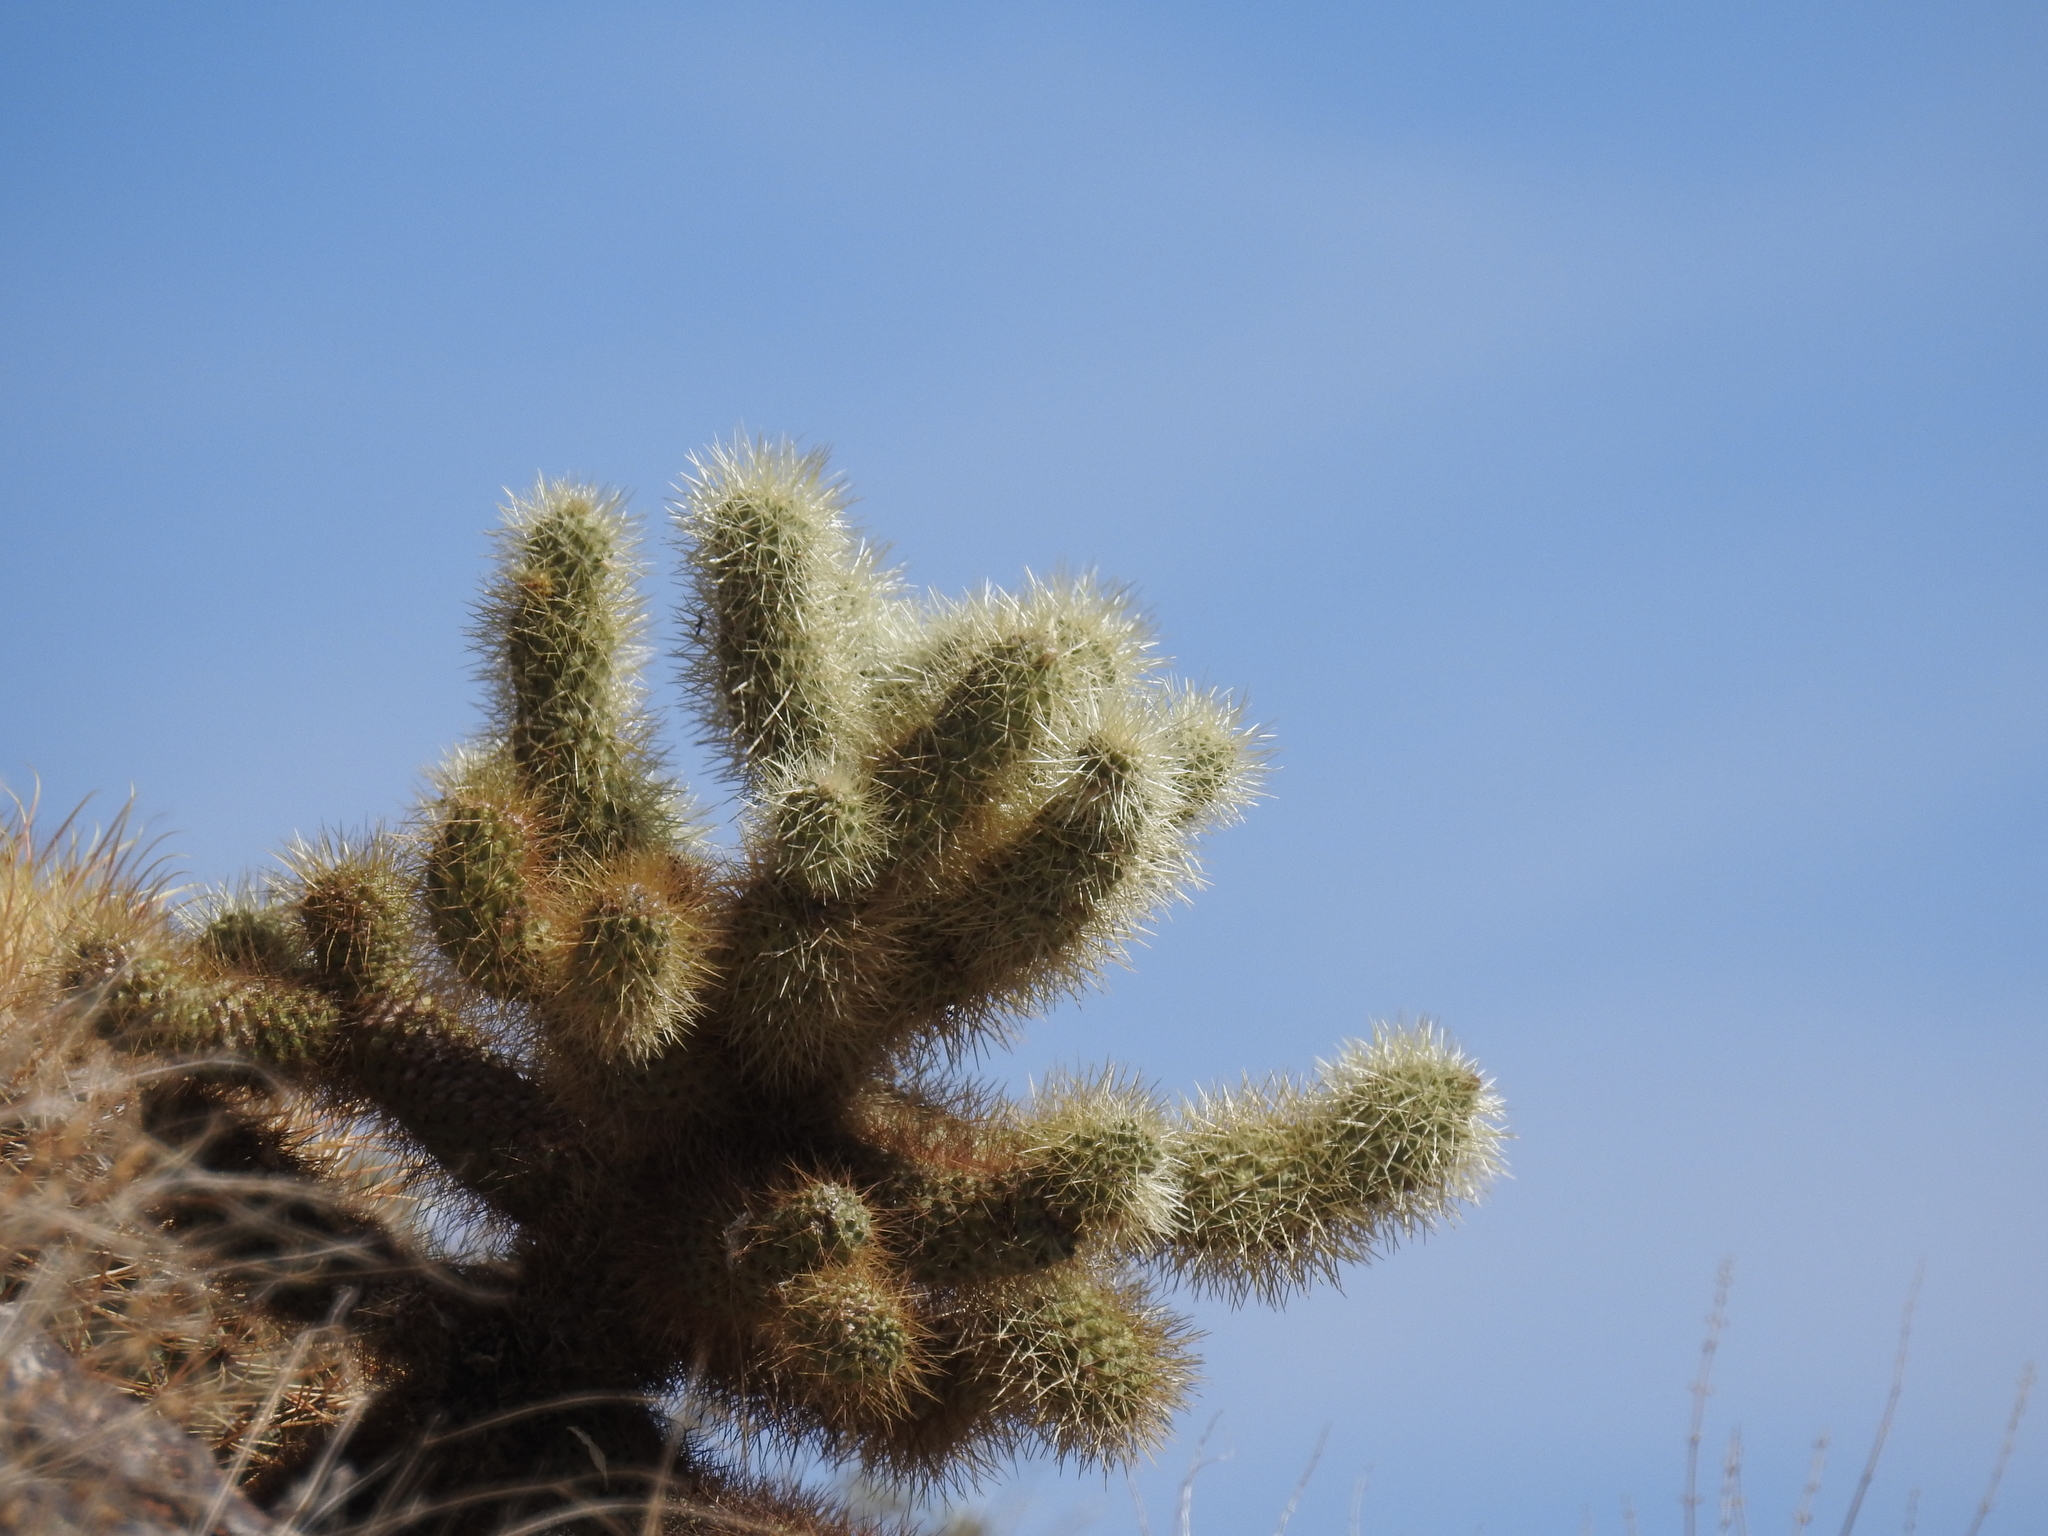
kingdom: Plantae
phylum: Tracheophyta
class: Magnoliopsida
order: Caryophyllales
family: Cactaceae
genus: Cylindropuntia
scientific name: Cylindropuntia fosbergii
